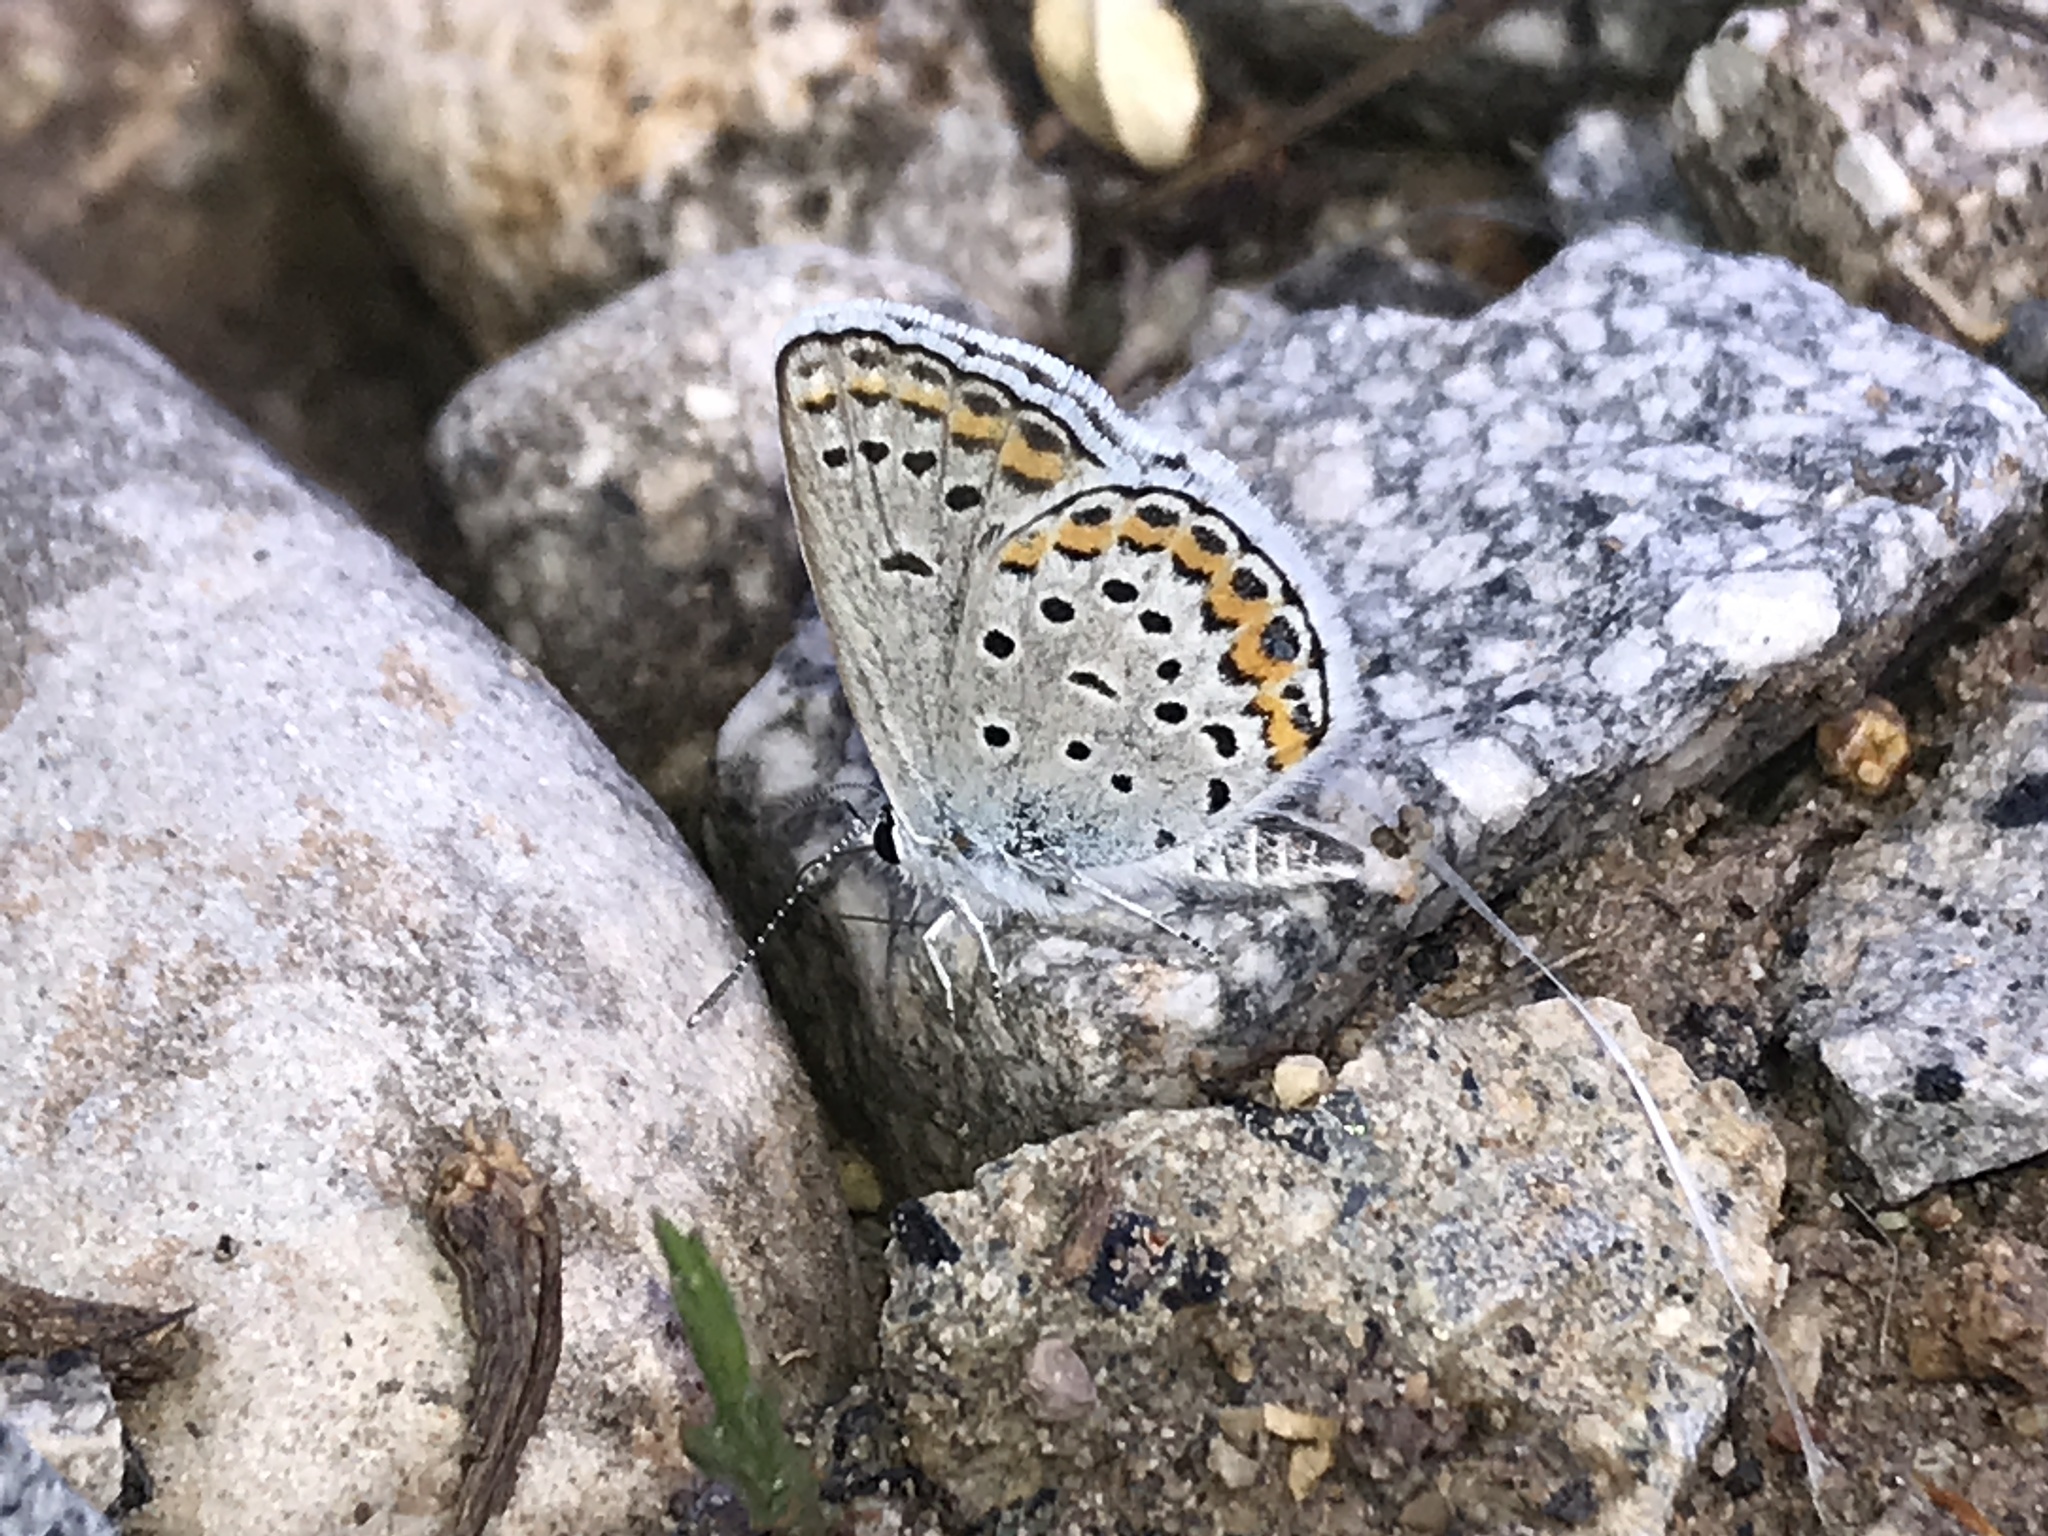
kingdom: Animalia
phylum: Arthropoda
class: Insecta
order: Lepidoptera
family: Lycaenidae
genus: Lycaeides
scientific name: Lycaeides melissa
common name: Melissa blue
